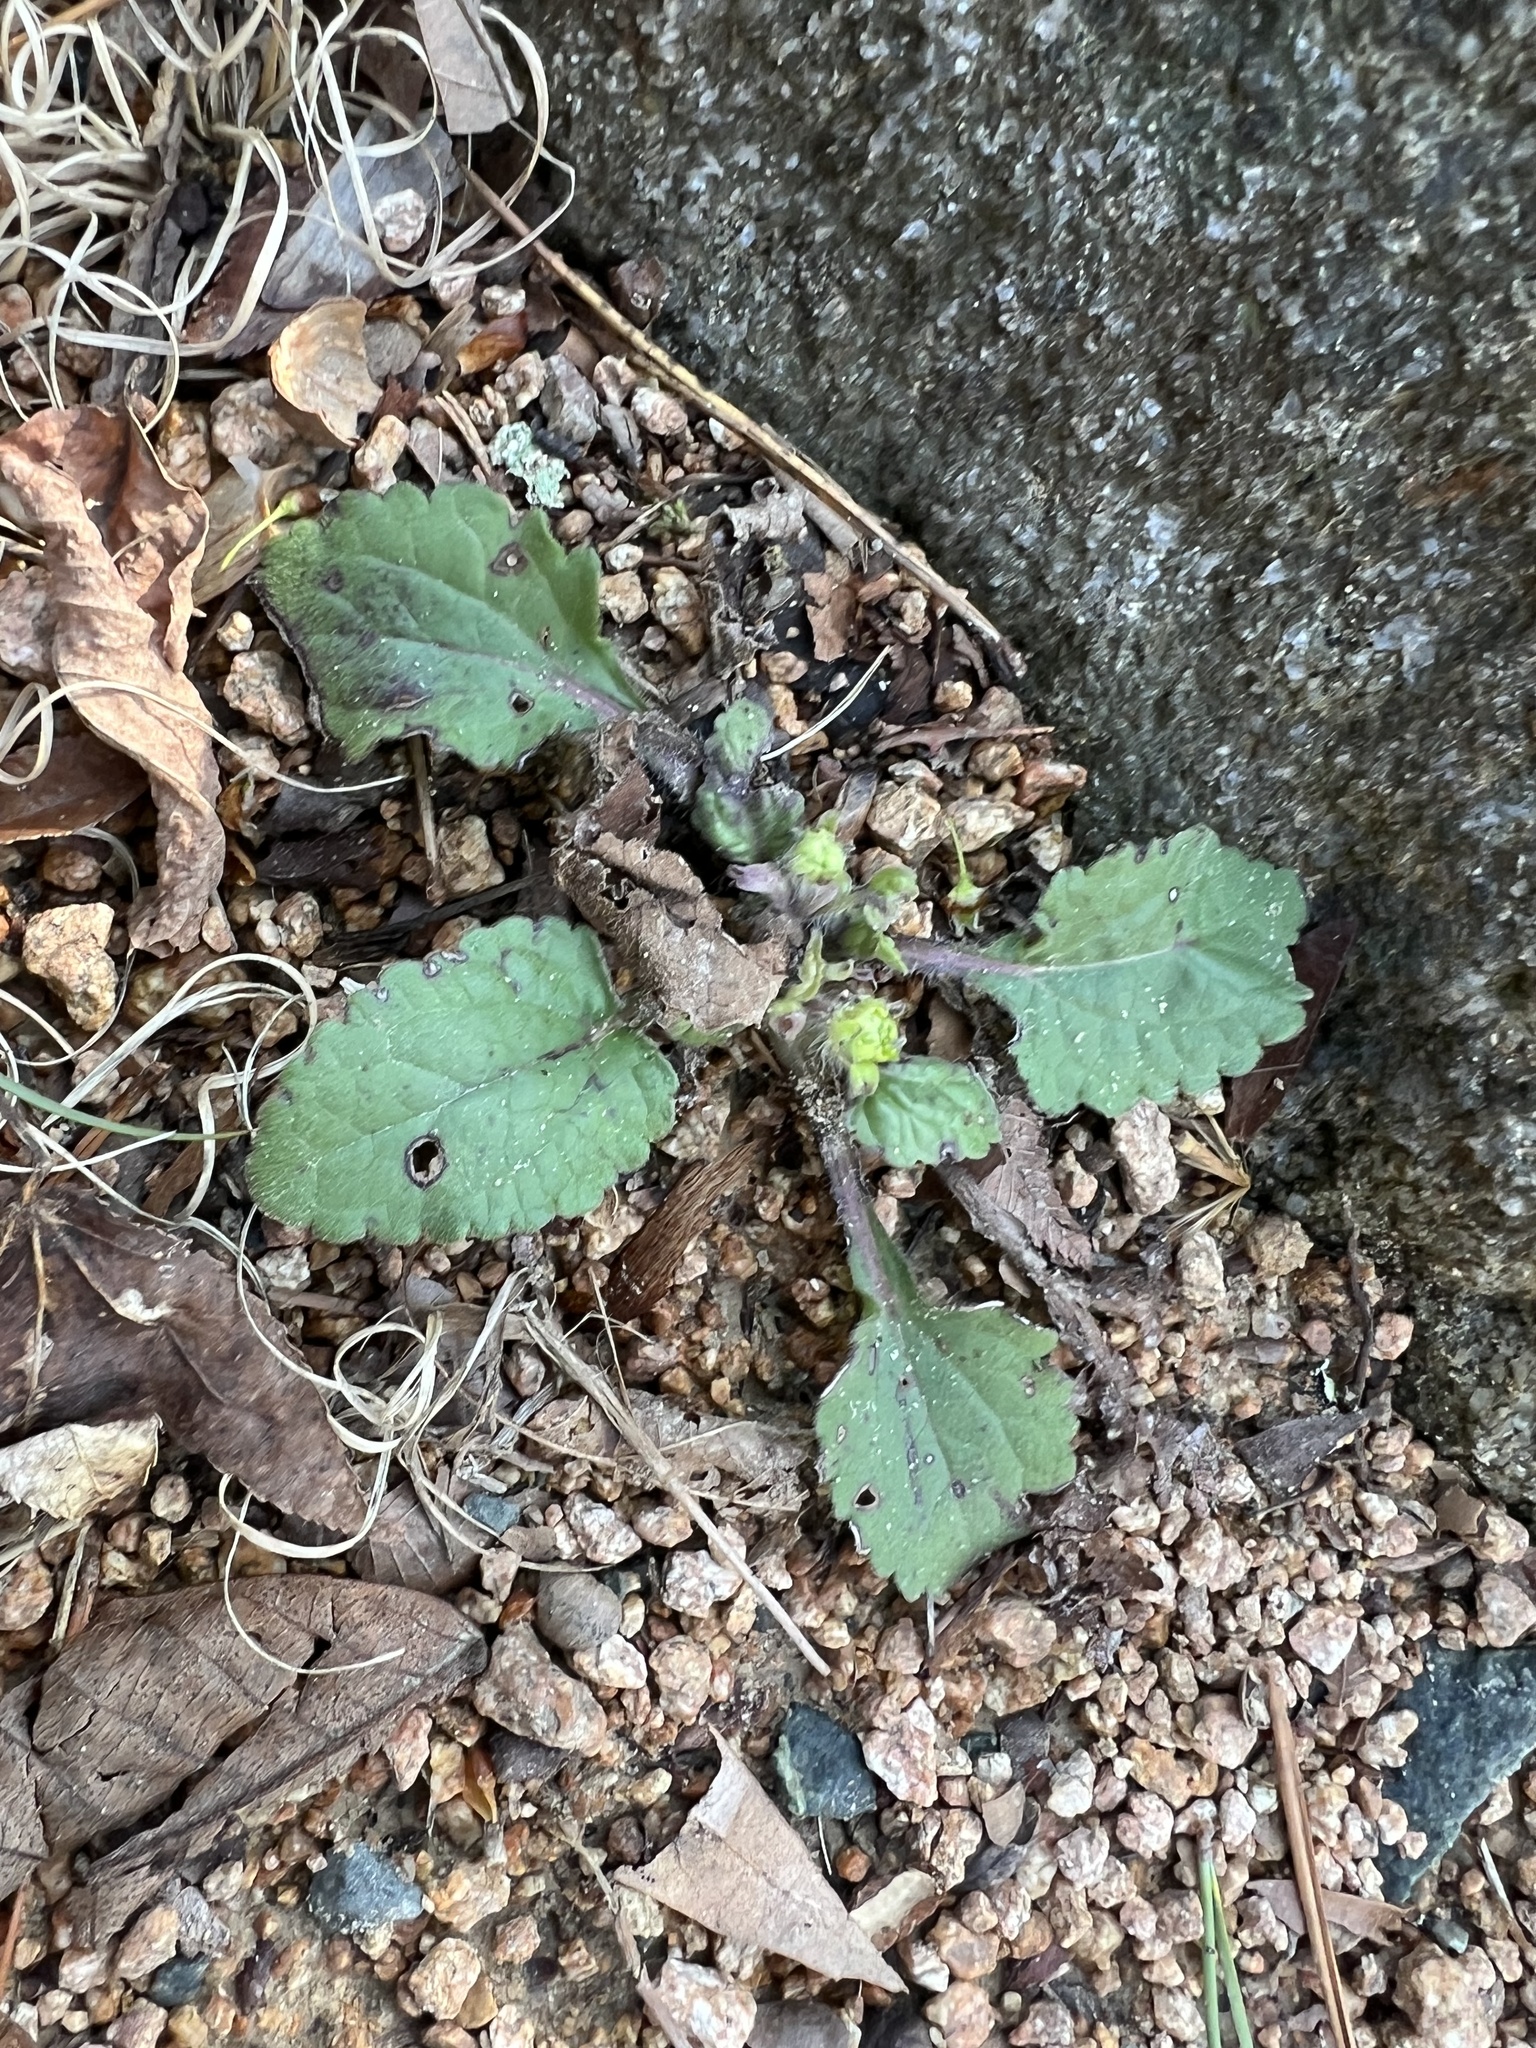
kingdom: Plantae
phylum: Tracheophyta
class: Magnoliopsida
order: Asterales
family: Asteraceae
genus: Chrysogonum
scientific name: Chrysogonum virginianum
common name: Golden-knee
